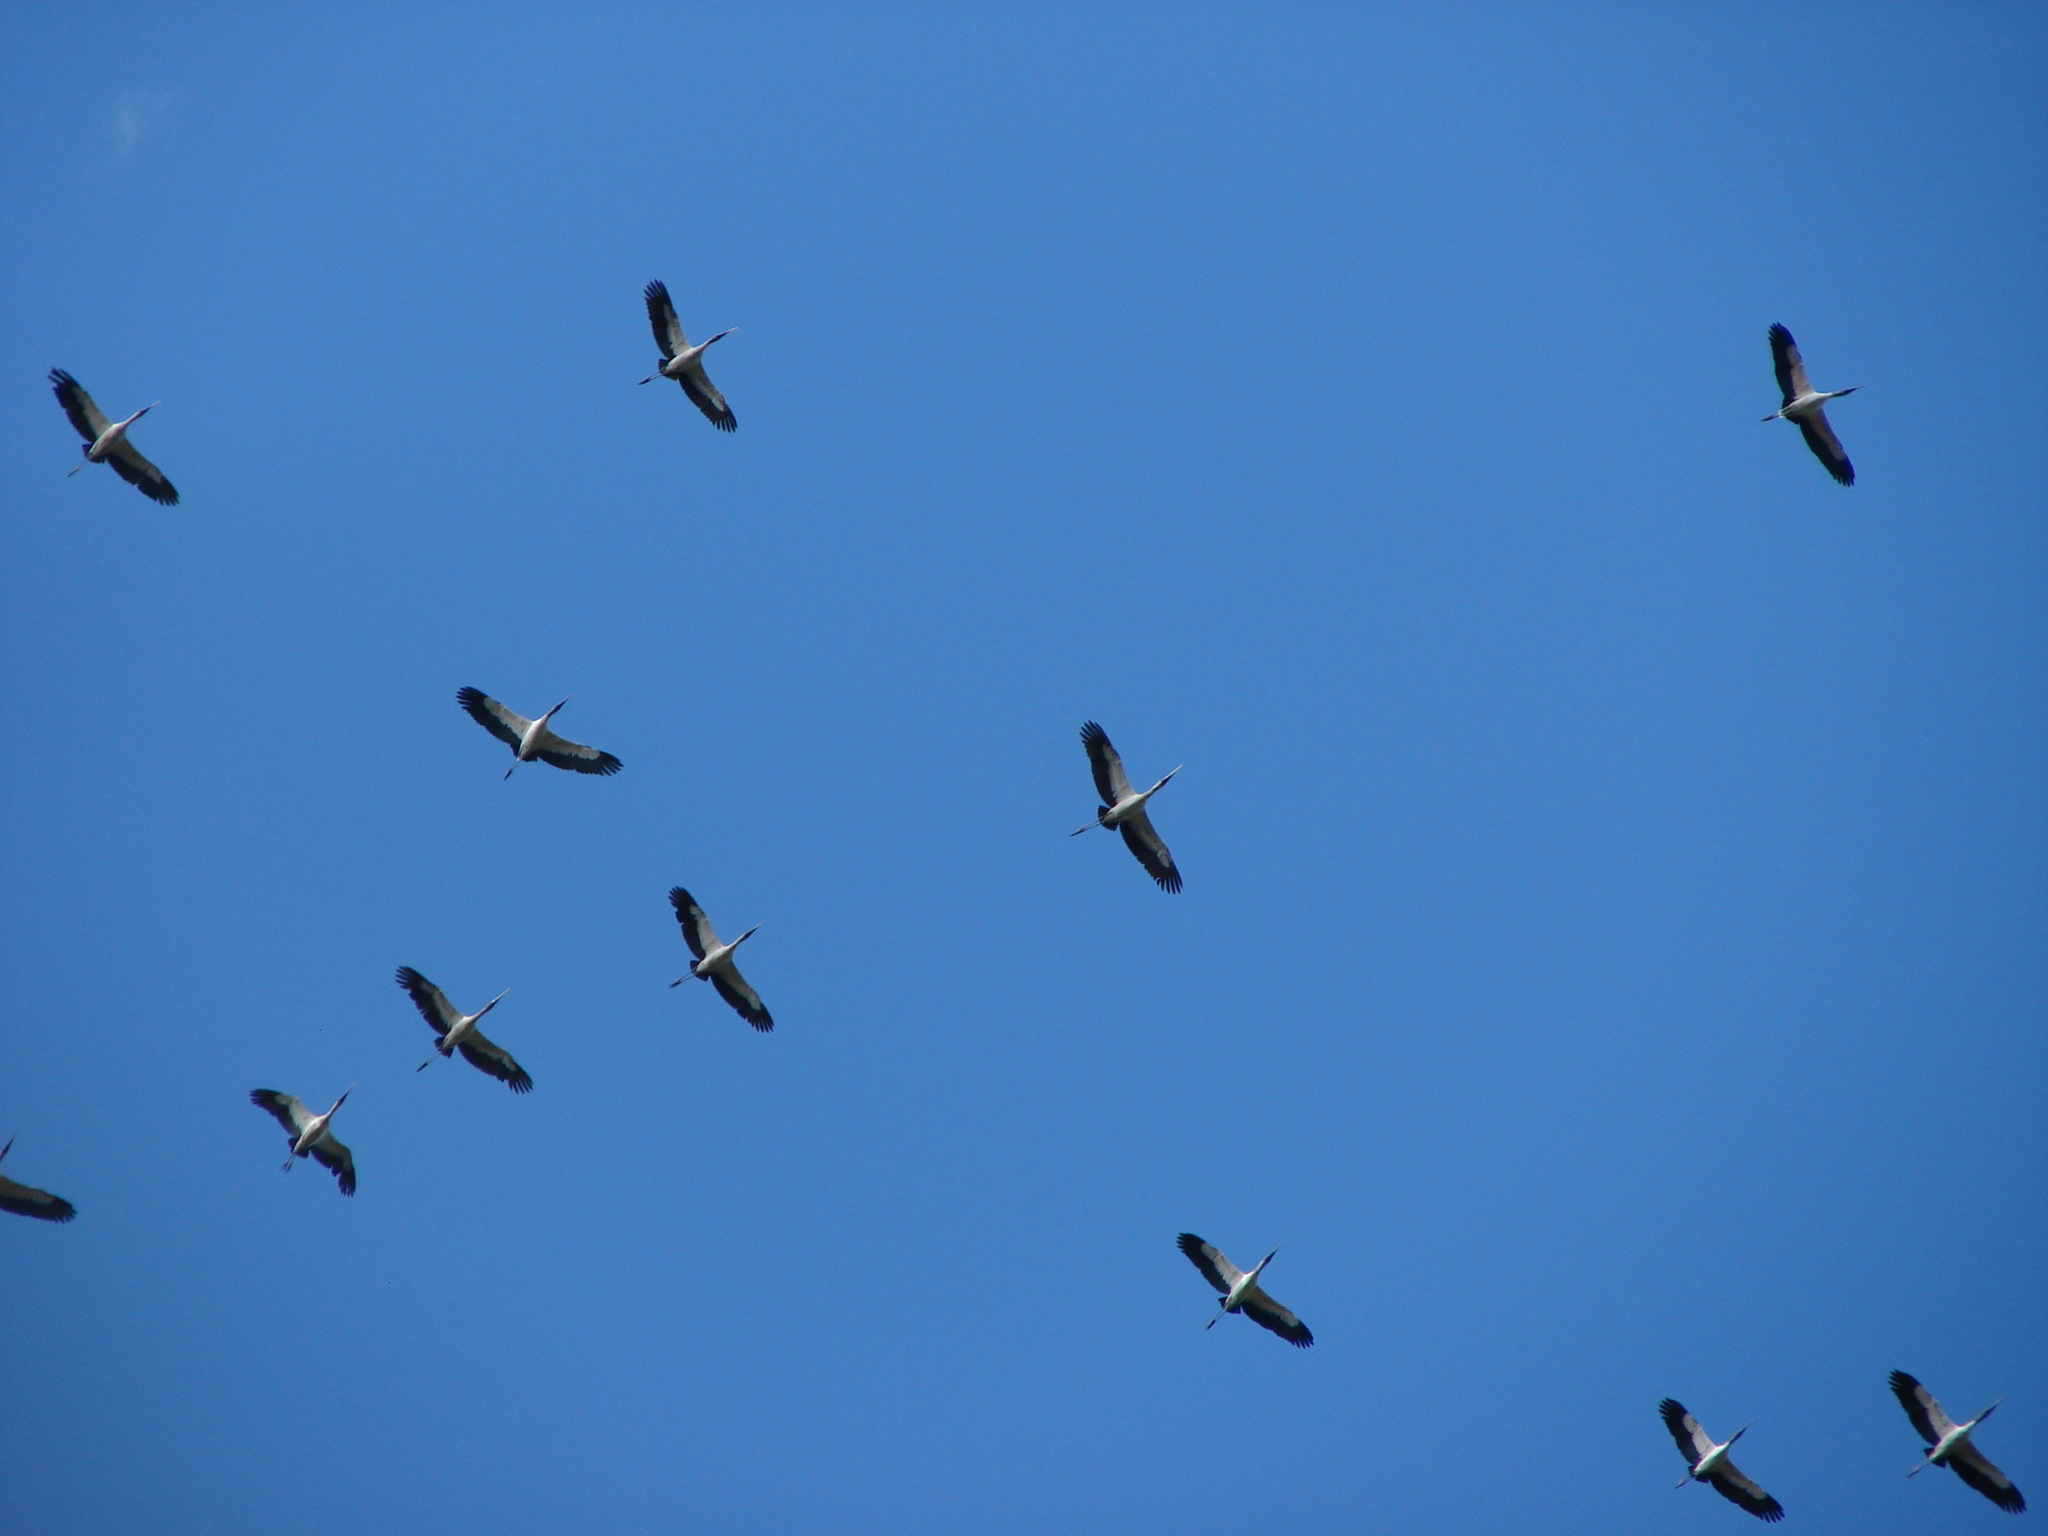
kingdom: Animalia
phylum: Chordata
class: Aves
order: Ciconiiformes
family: Ciconiidae
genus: Mycteria
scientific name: Mycteria americana
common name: Wood stork
